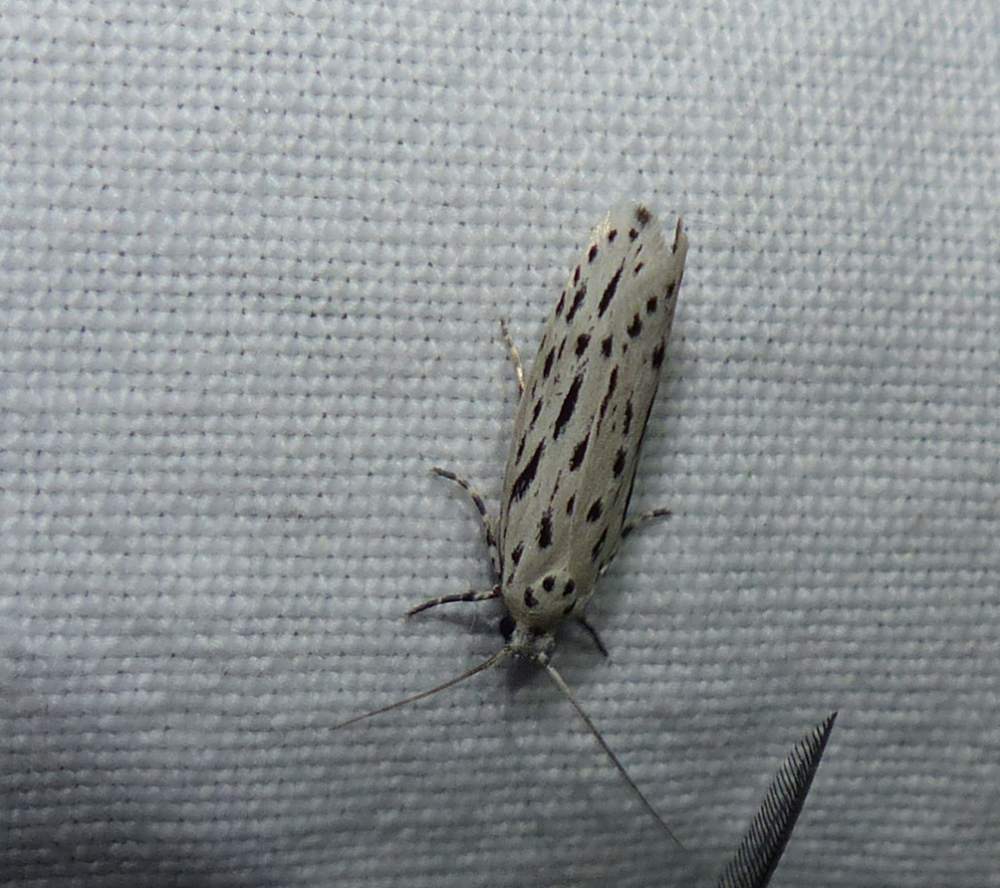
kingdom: Animalia
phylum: Arthropoda
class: Insecta
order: Lepidoptera
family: Ethmiidae
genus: Ethmia
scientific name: Ethmia longimaculella
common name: Streaked ethmia moth
